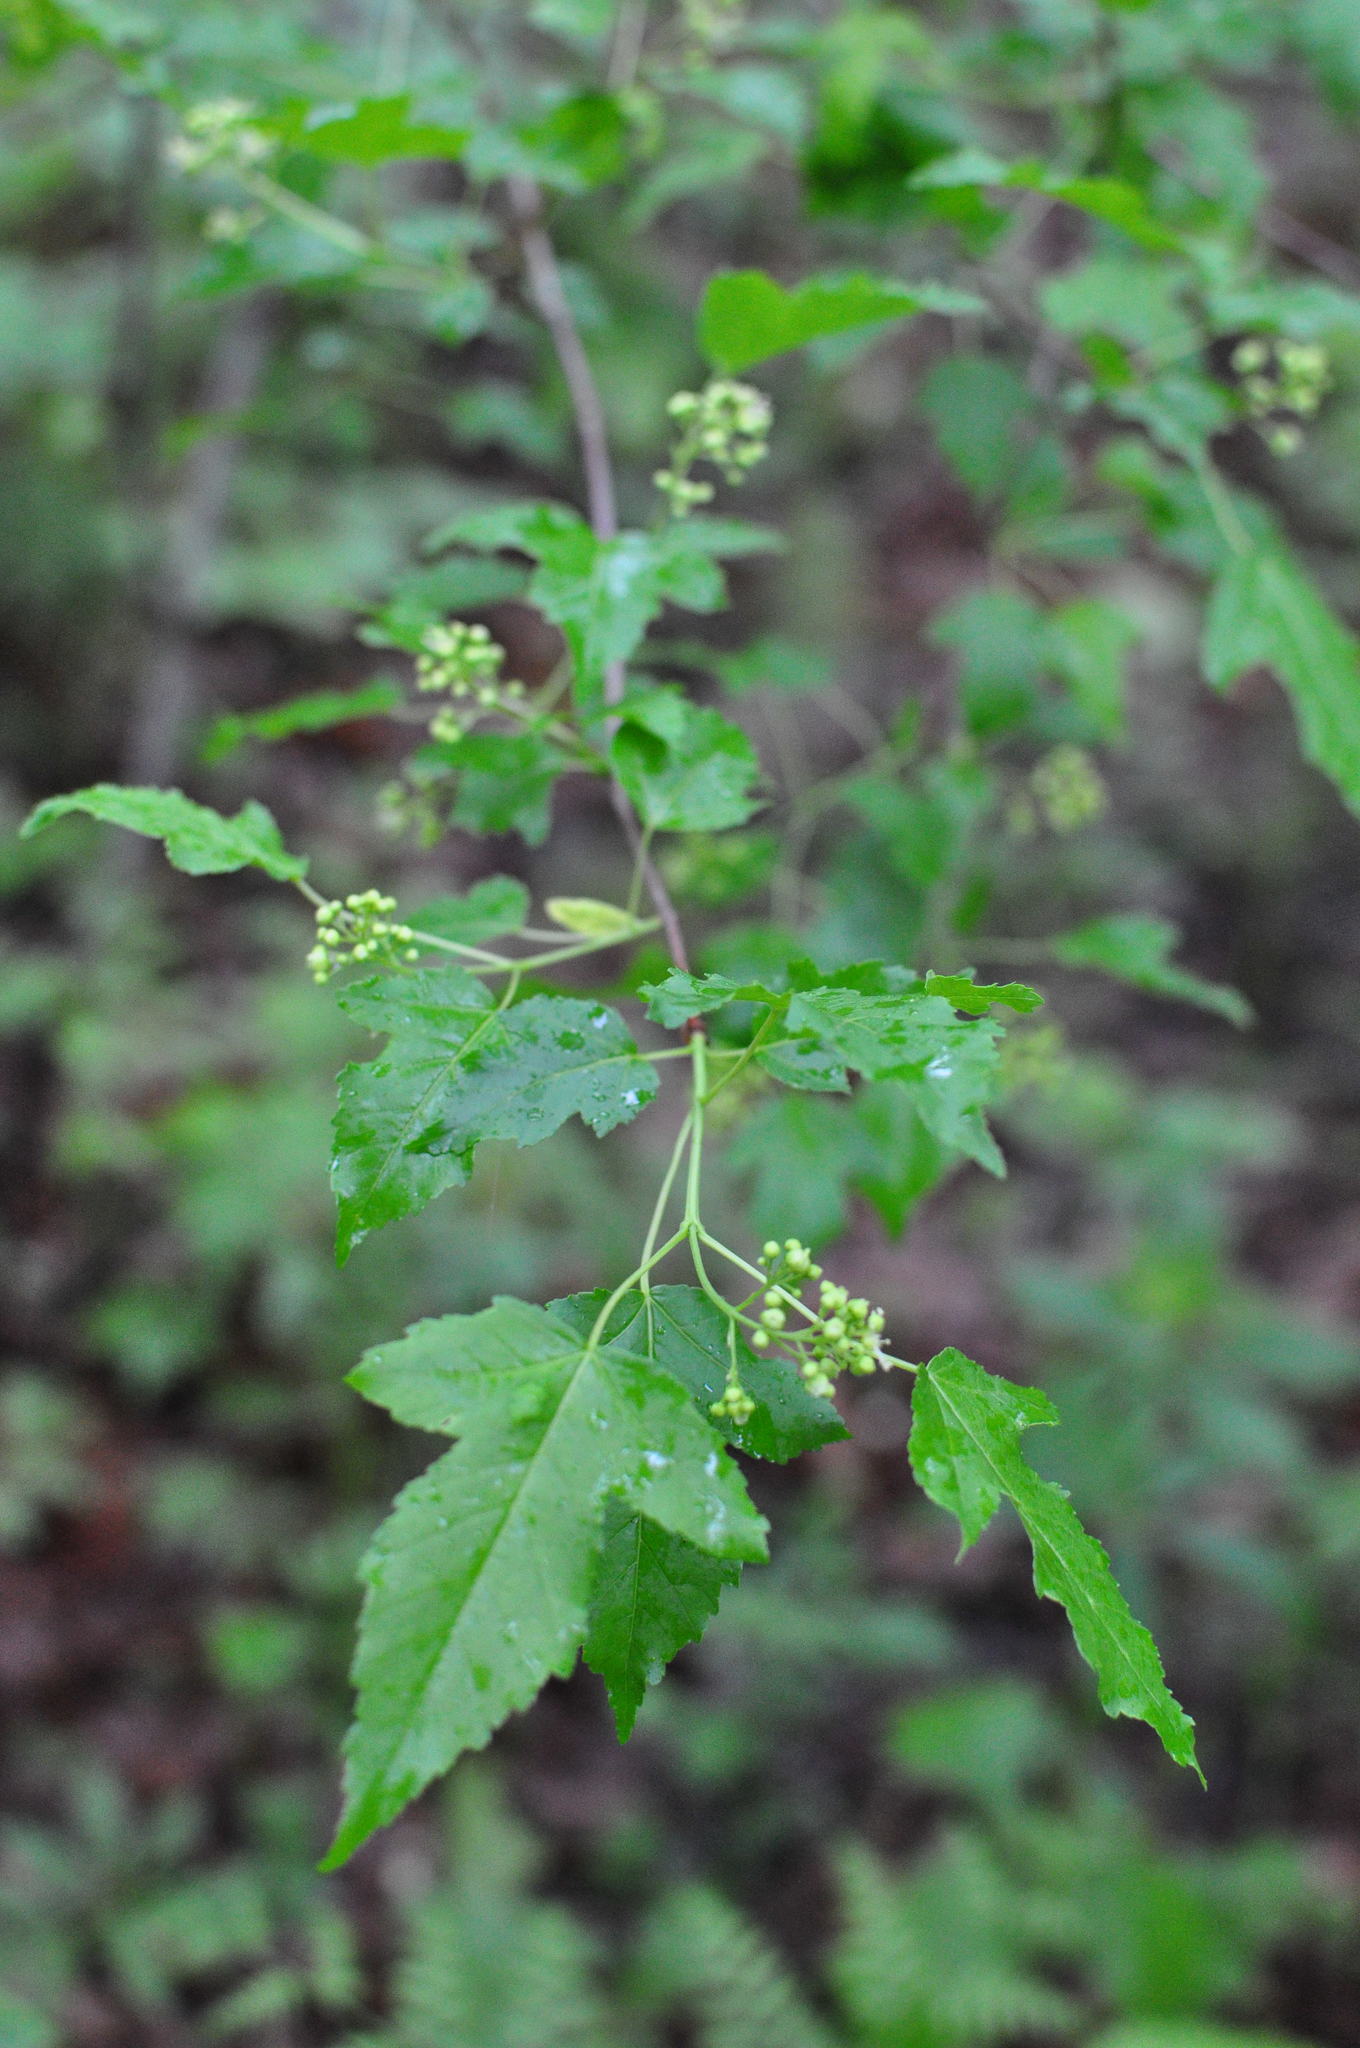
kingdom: Plantae
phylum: Tracheophyta
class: Magnoliopsida
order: Sapindales
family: Sapindaceae
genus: Acer
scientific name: Acer tataricum
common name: Tartar maple
